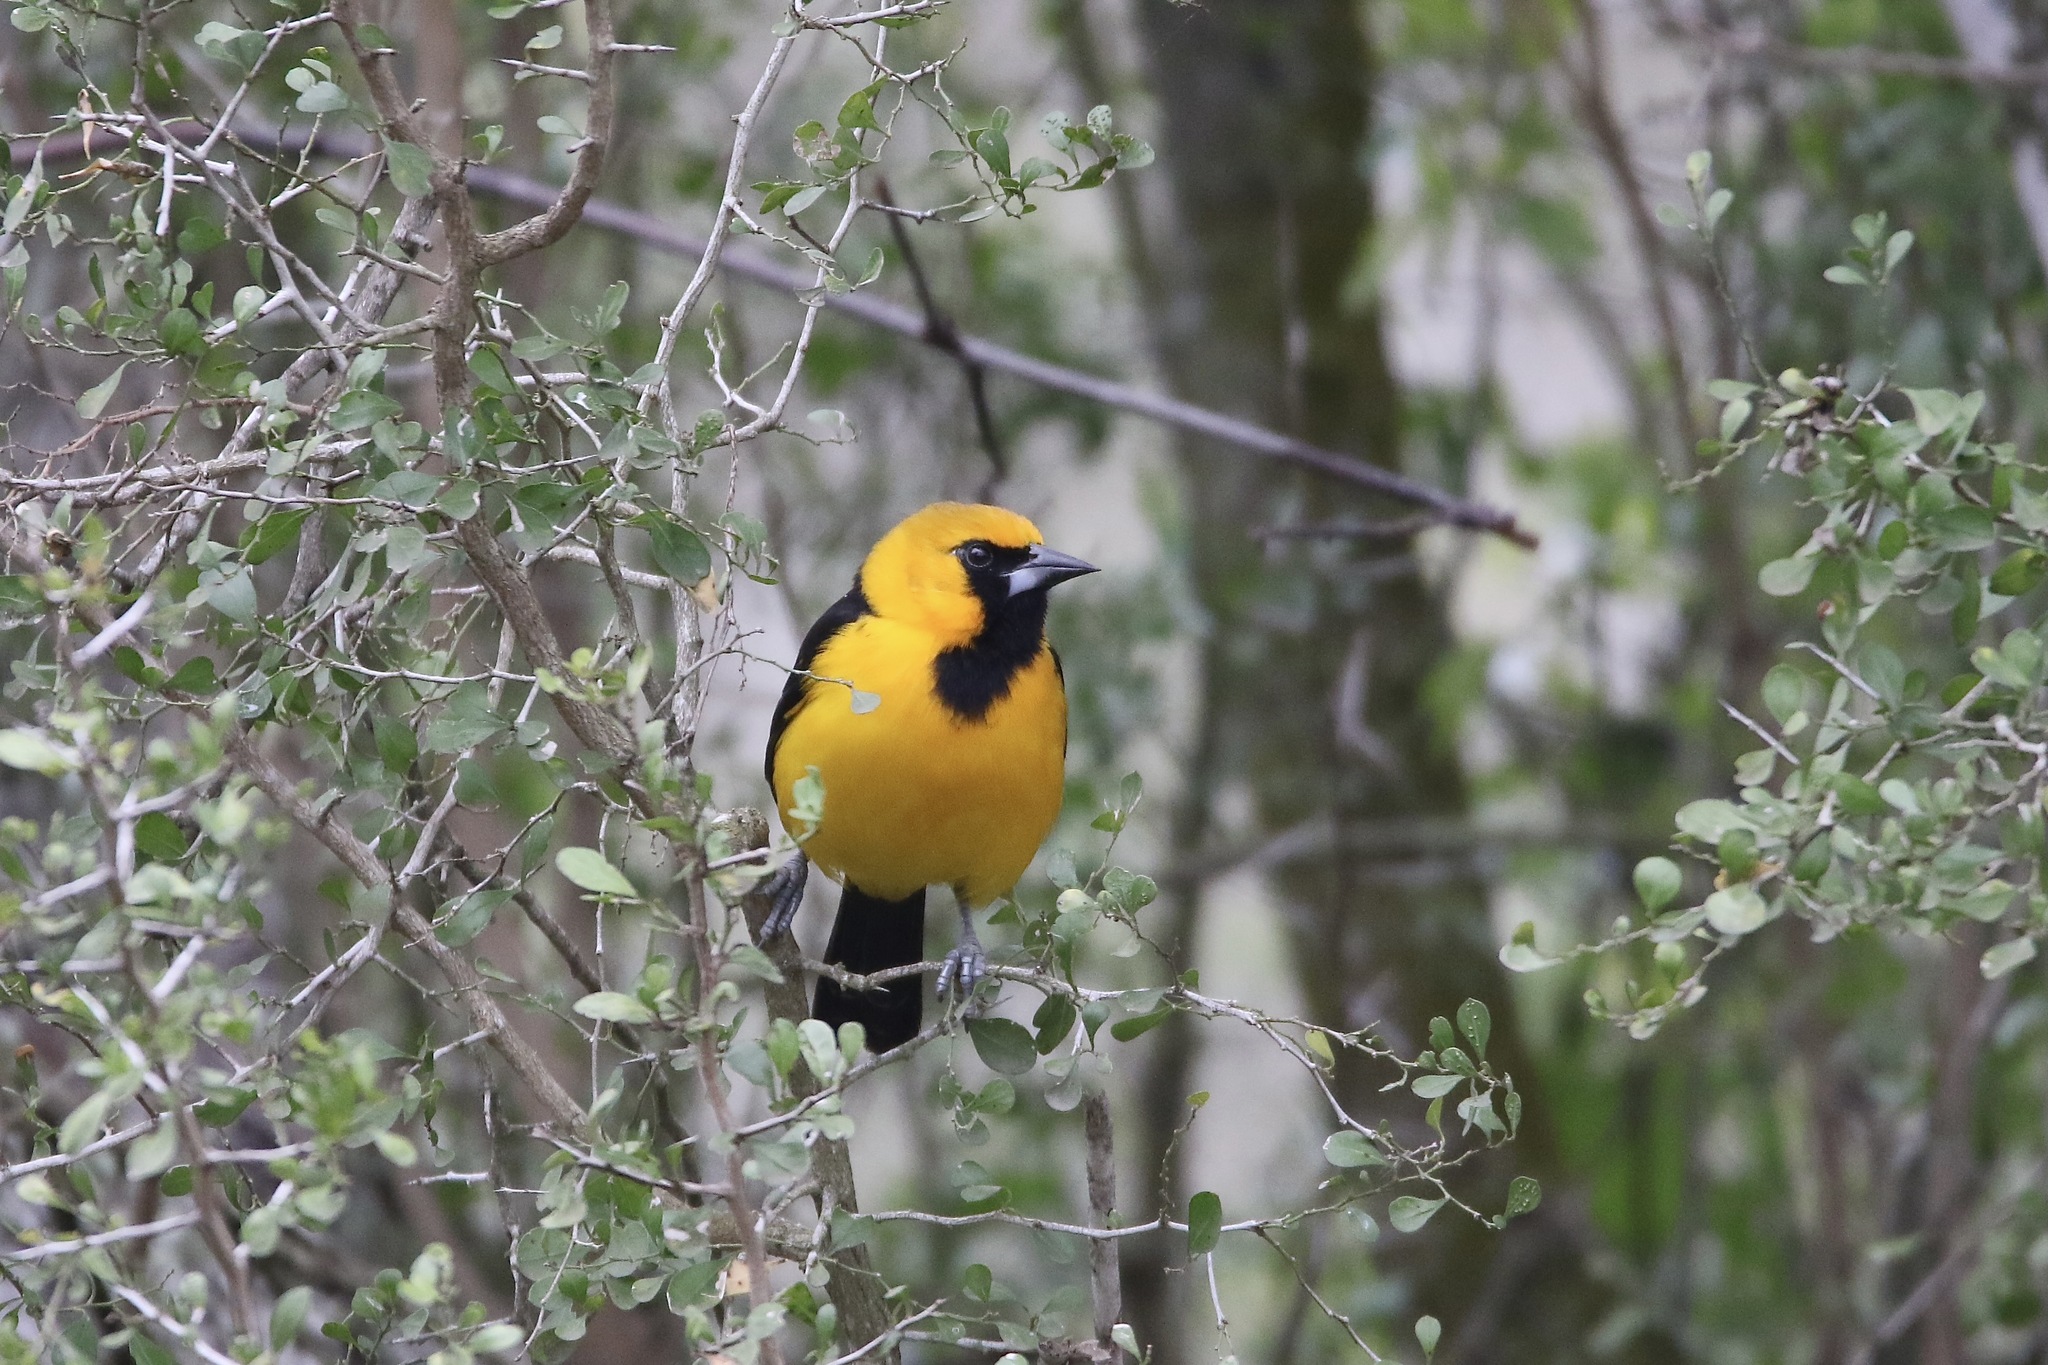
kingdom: Animalia
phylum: Chordata
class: Aves
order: Passeriformes
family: Icteridae
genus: Icterus
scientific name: Icterus gularis
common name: Altamira oriole
